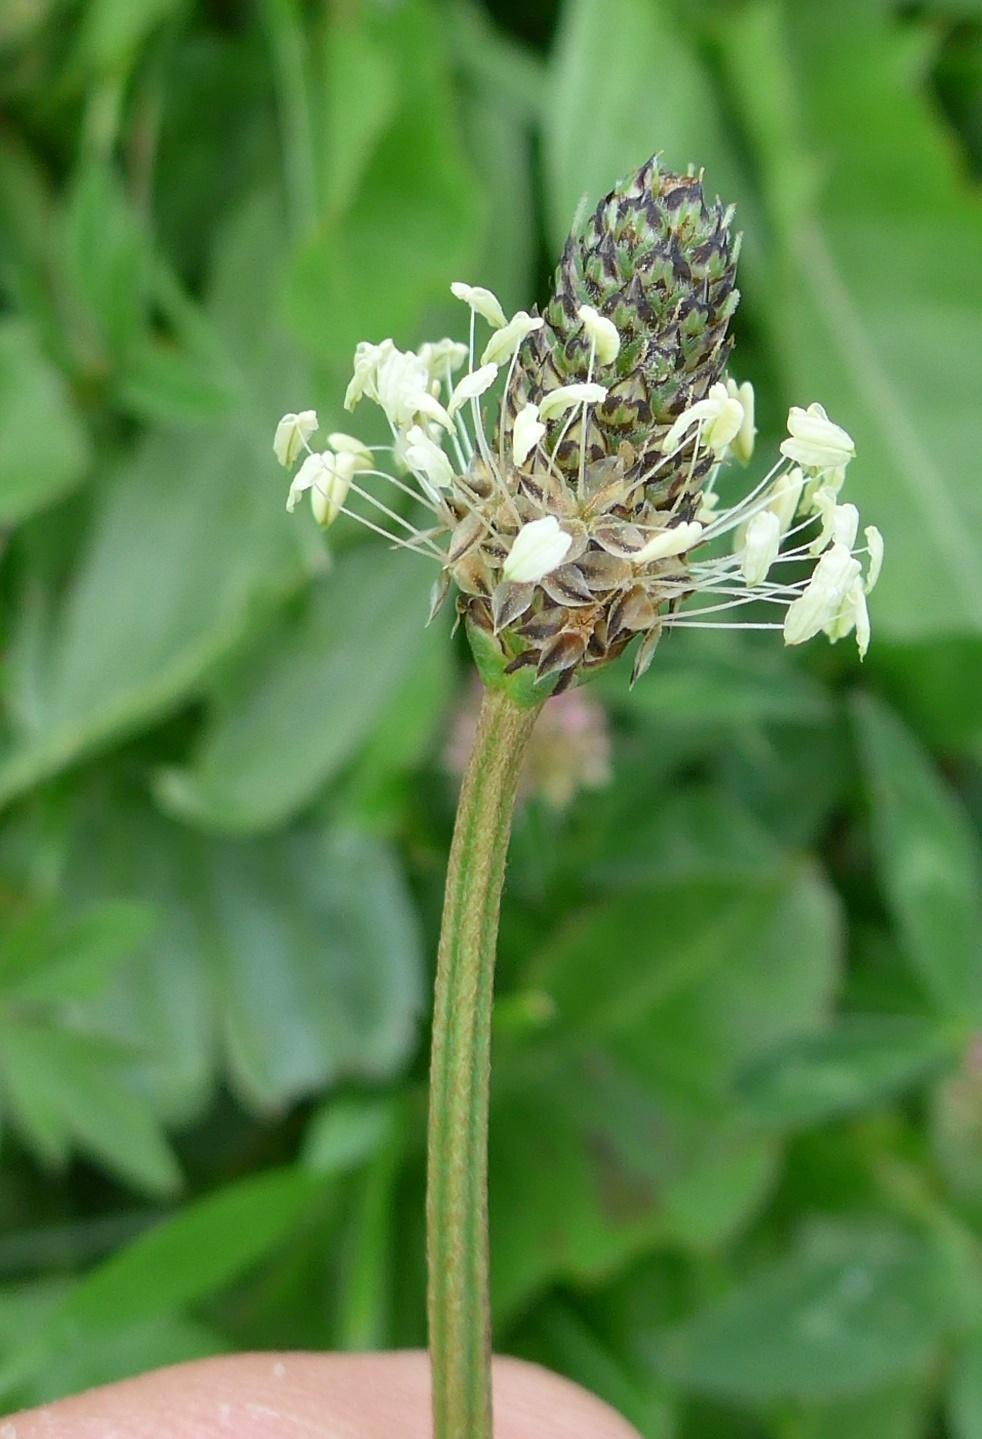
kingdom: Plantae
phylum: Tracheophyta
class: Magnoliopsida
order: Lamiales
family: Plantaginaceae
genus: Plantago
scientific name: Plantago lanceolata
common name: Ribwort plantain
